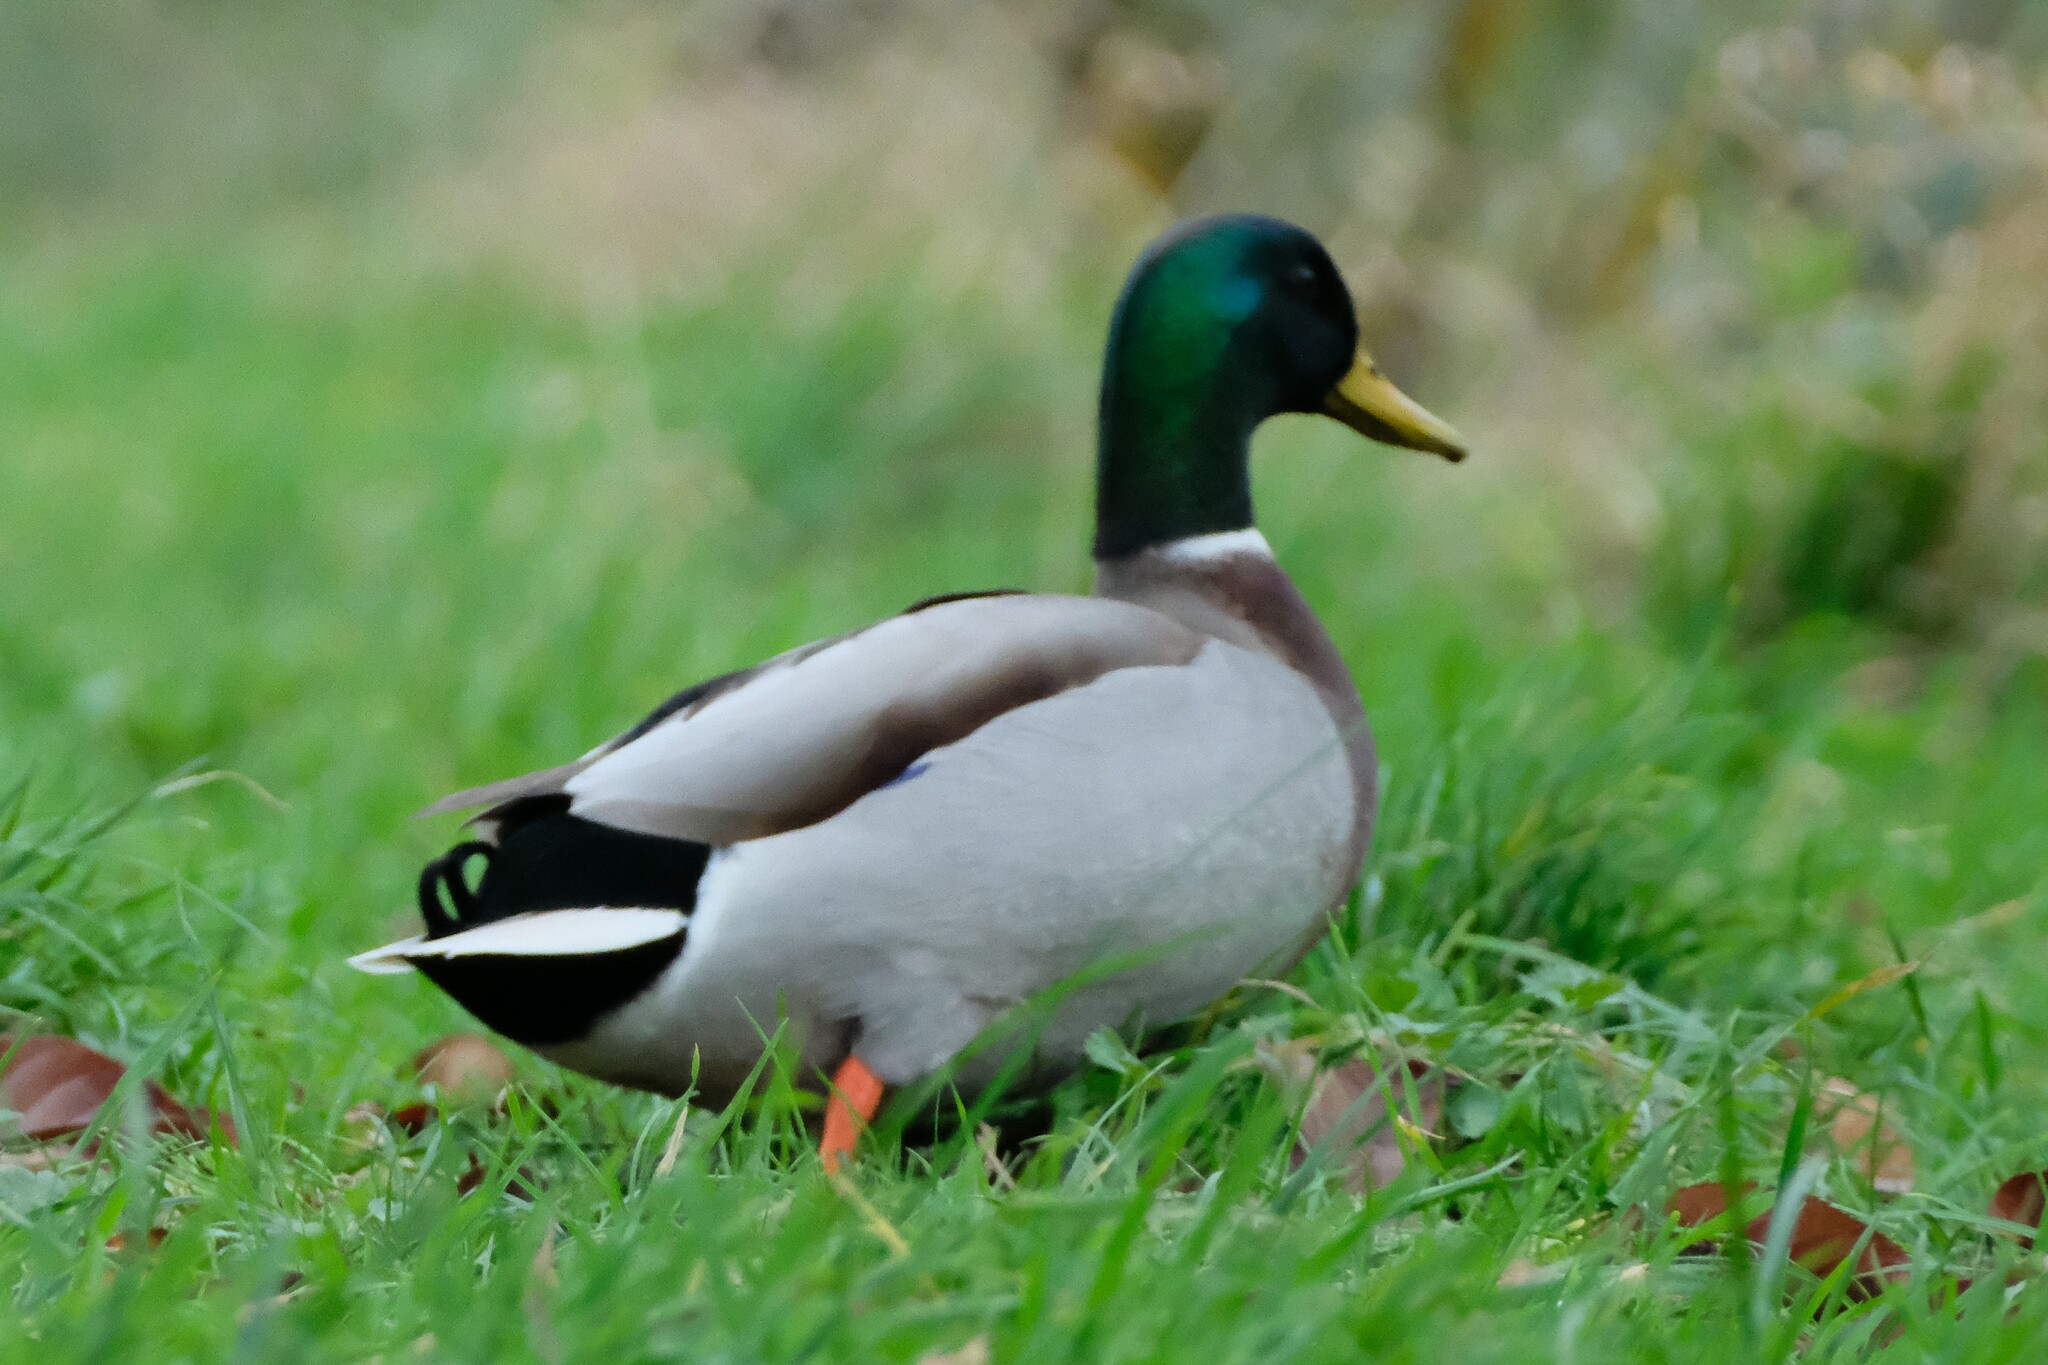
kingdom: Animalia
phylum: Chordata
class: Aves
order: Anseriformes
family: Anatidae
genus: Anas
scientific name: Anas platyrhynchos
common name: Mallard
